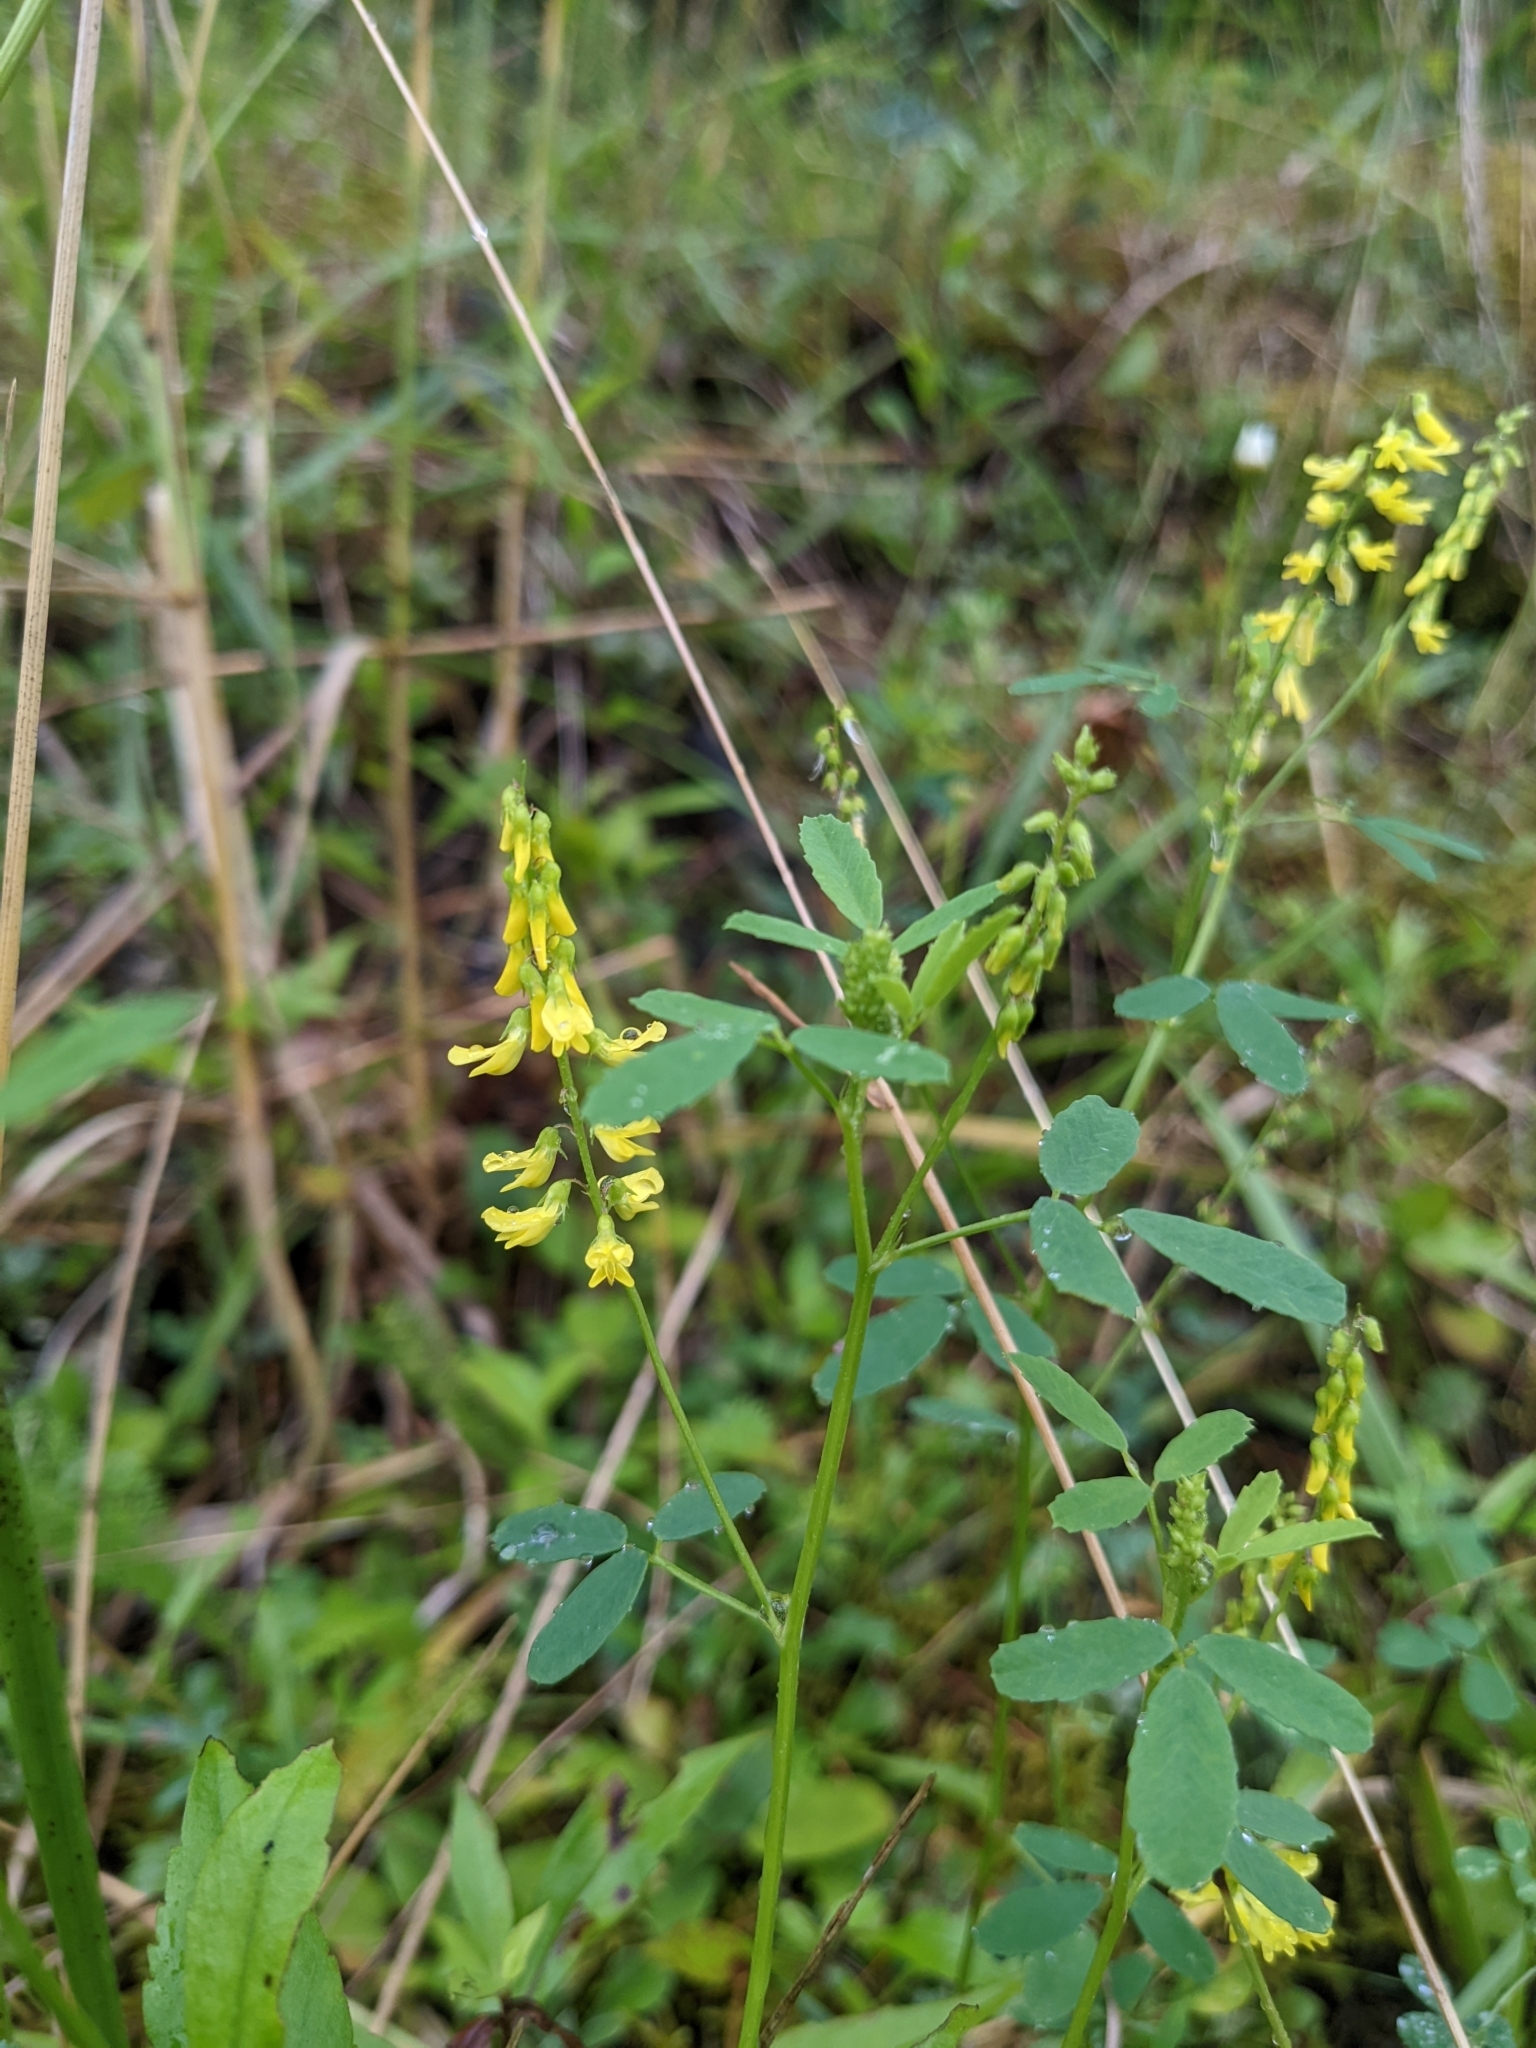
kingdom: Plantae
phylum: Tracheophyta
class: Magnoliopsida
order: Fabales
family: Fabaceae
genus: Melilotus
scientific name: Melilotus officinalis
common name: Sweetclover
